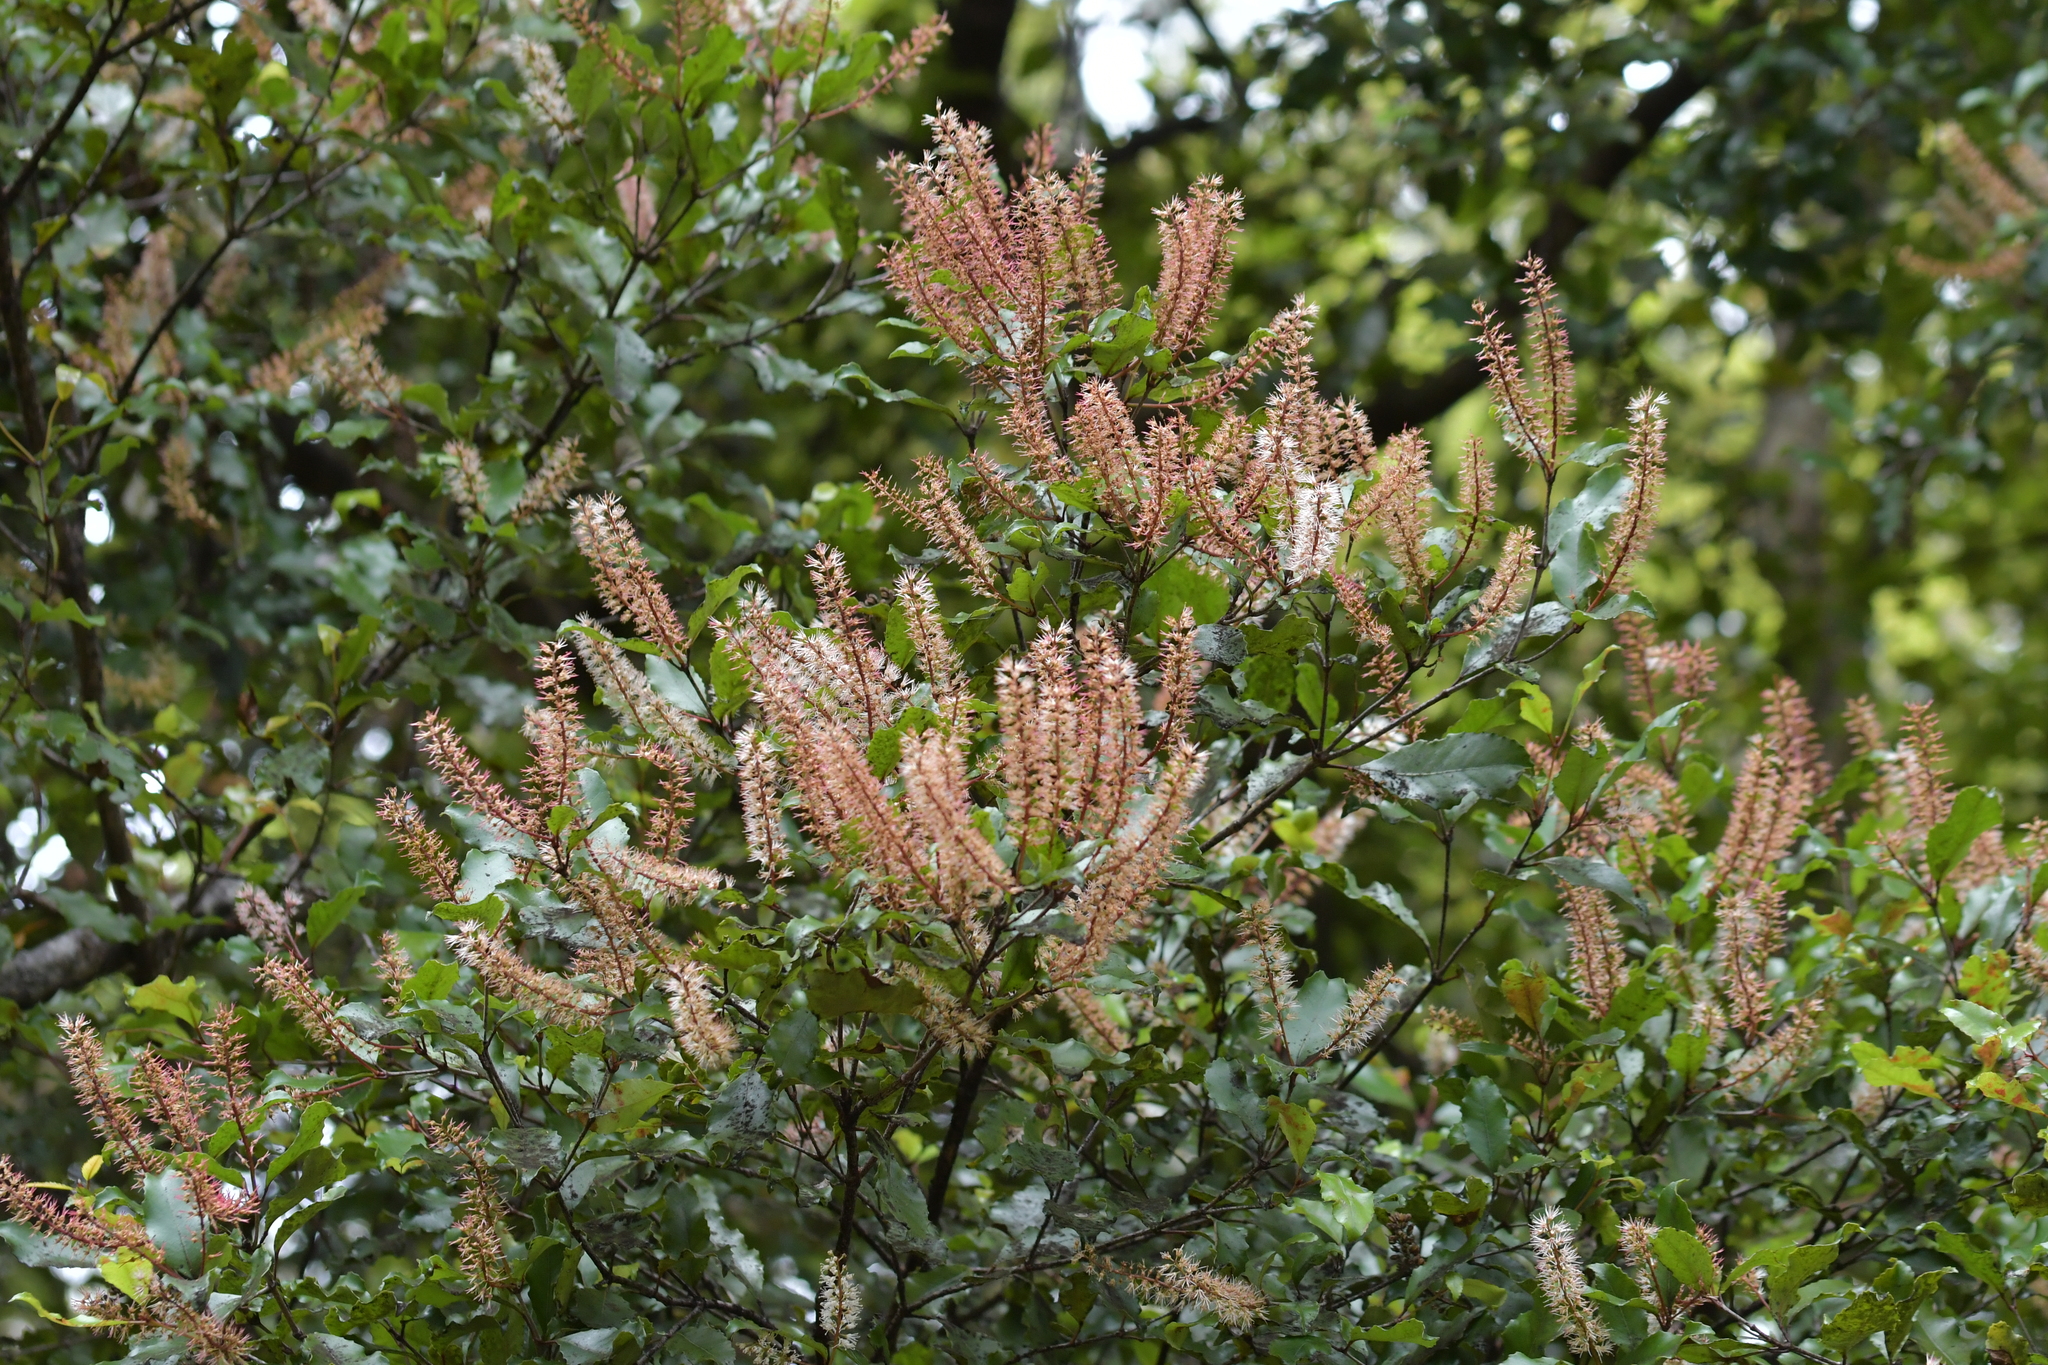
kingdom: Plantae
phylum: Tracheophyta
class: Magnoliopsida
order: Oxalidales
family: Cunoniaceae
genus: Pterophylla
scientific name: Pterophylla racemosa
